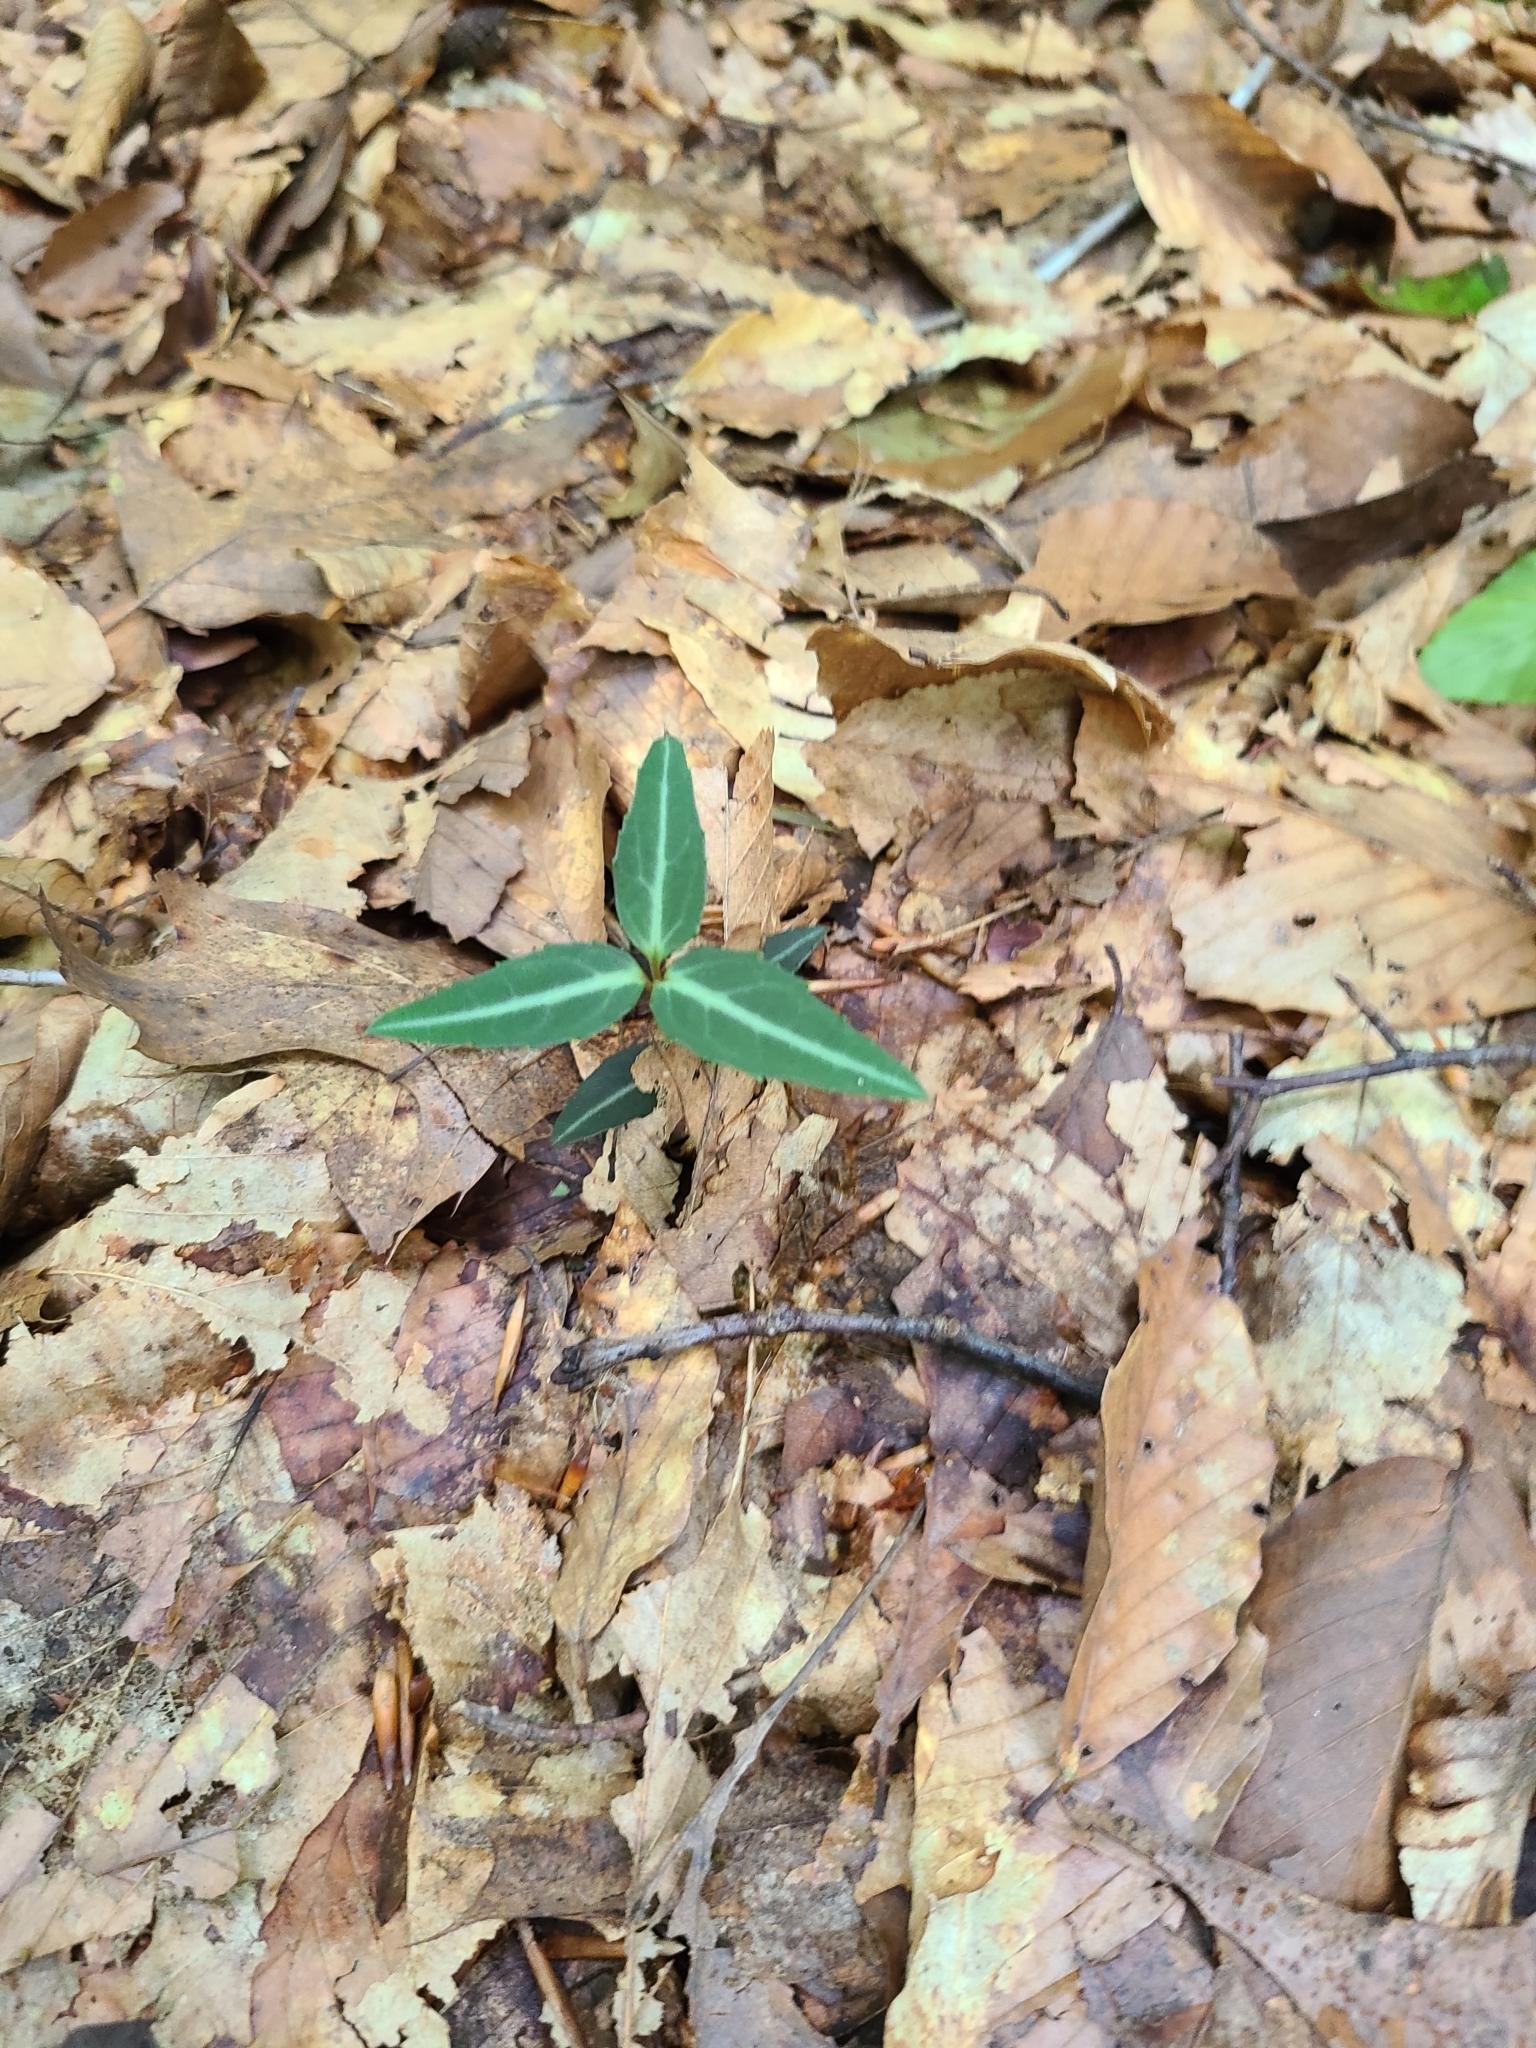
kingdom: Plantae
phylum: Tracheophyta
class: Magnoliopsida
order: Ericales
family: Ericaceae
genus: Chimaphila
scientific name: Chimaphila maculata
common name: Spotted pipsissewa
